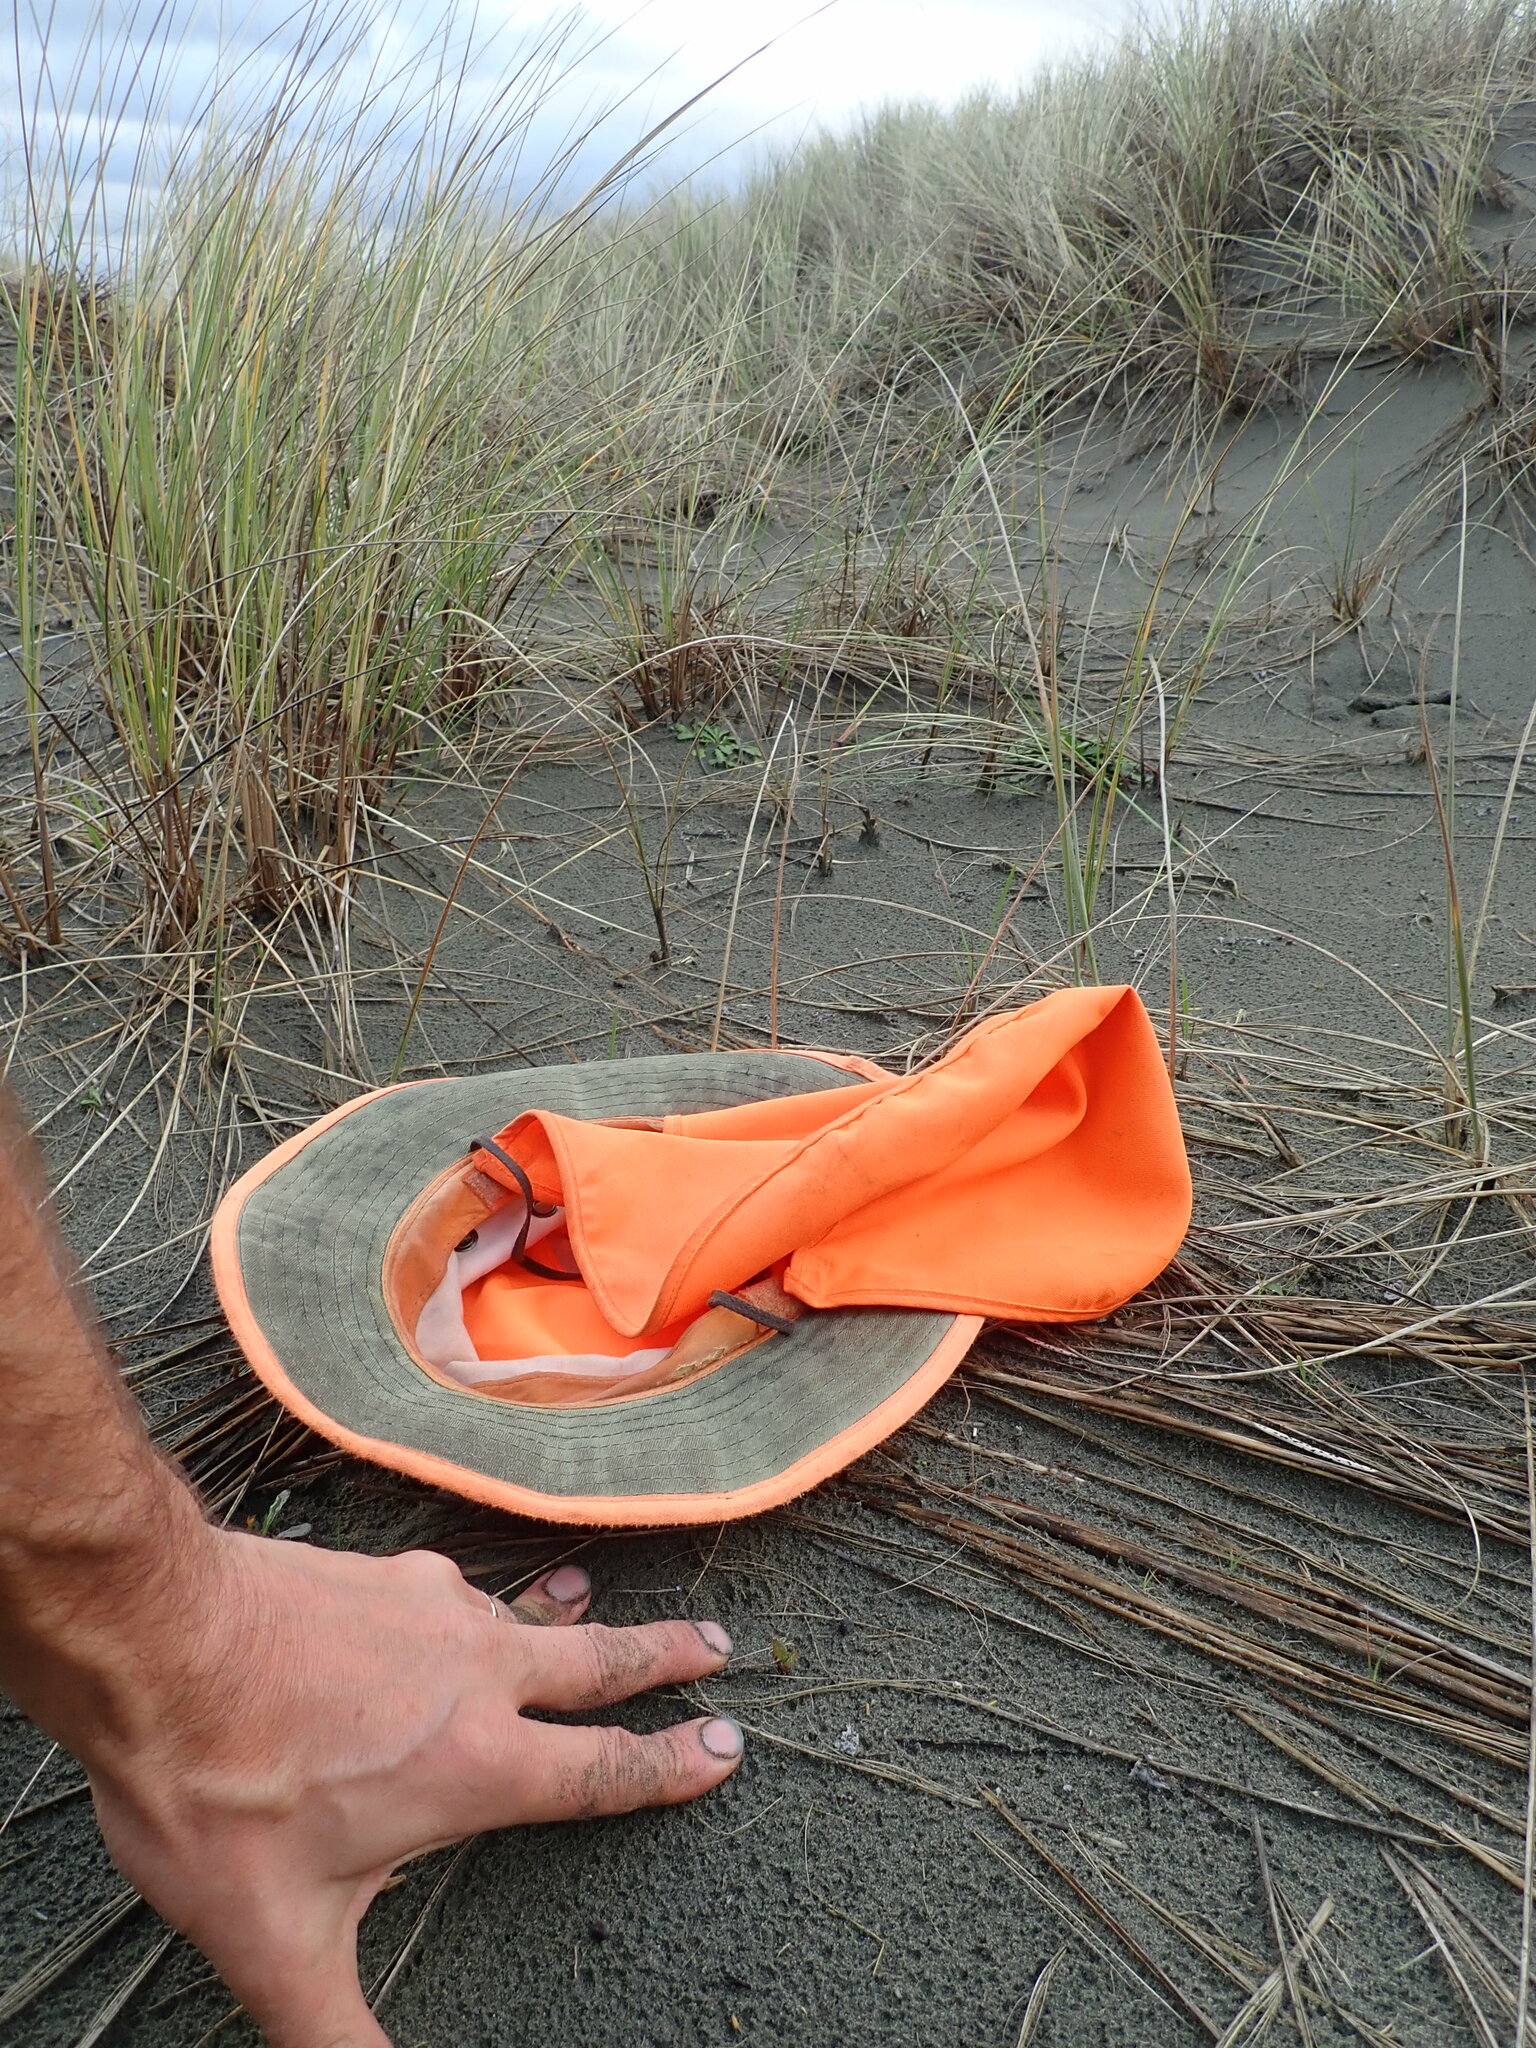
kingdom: Plantae
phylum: Tracheophyta
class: Magnoliopsida
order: Solanales
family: Convolvulaceae
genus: Calystegia
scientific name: Calystegia soldanella
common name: Sea bindweed
